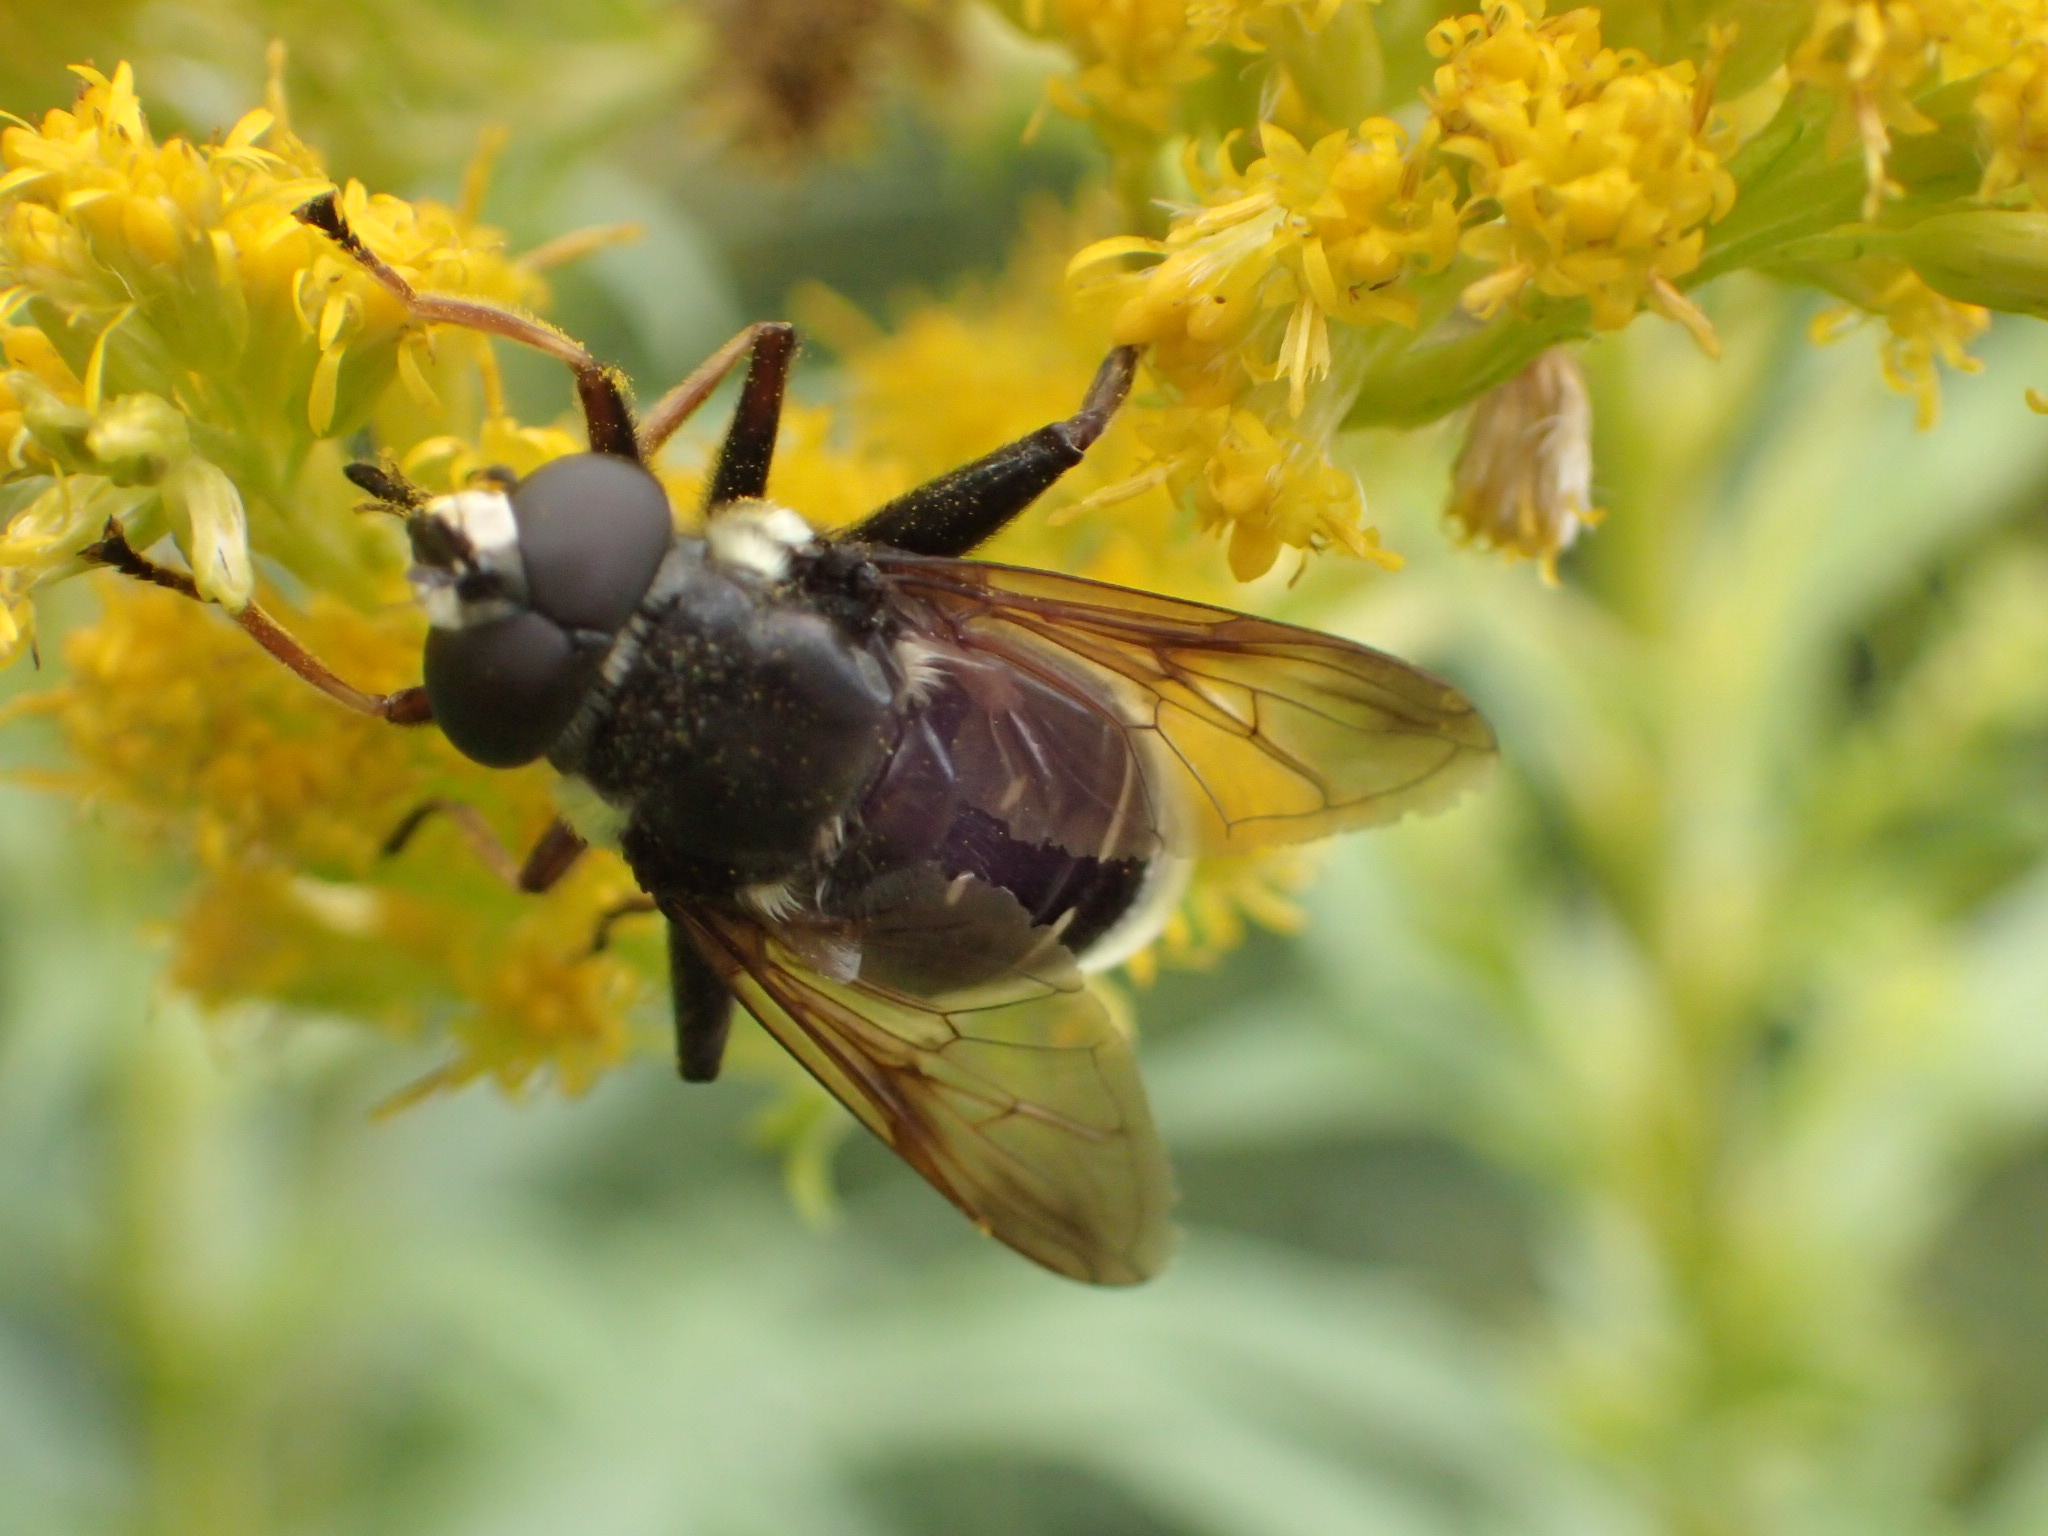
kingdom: Animalia
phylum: Arthropoda
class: Insecta
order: Diptera
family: Syrphidae
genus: Sericomyia
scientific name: Sericomyia militaris
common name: Narrow-banded pond fly
